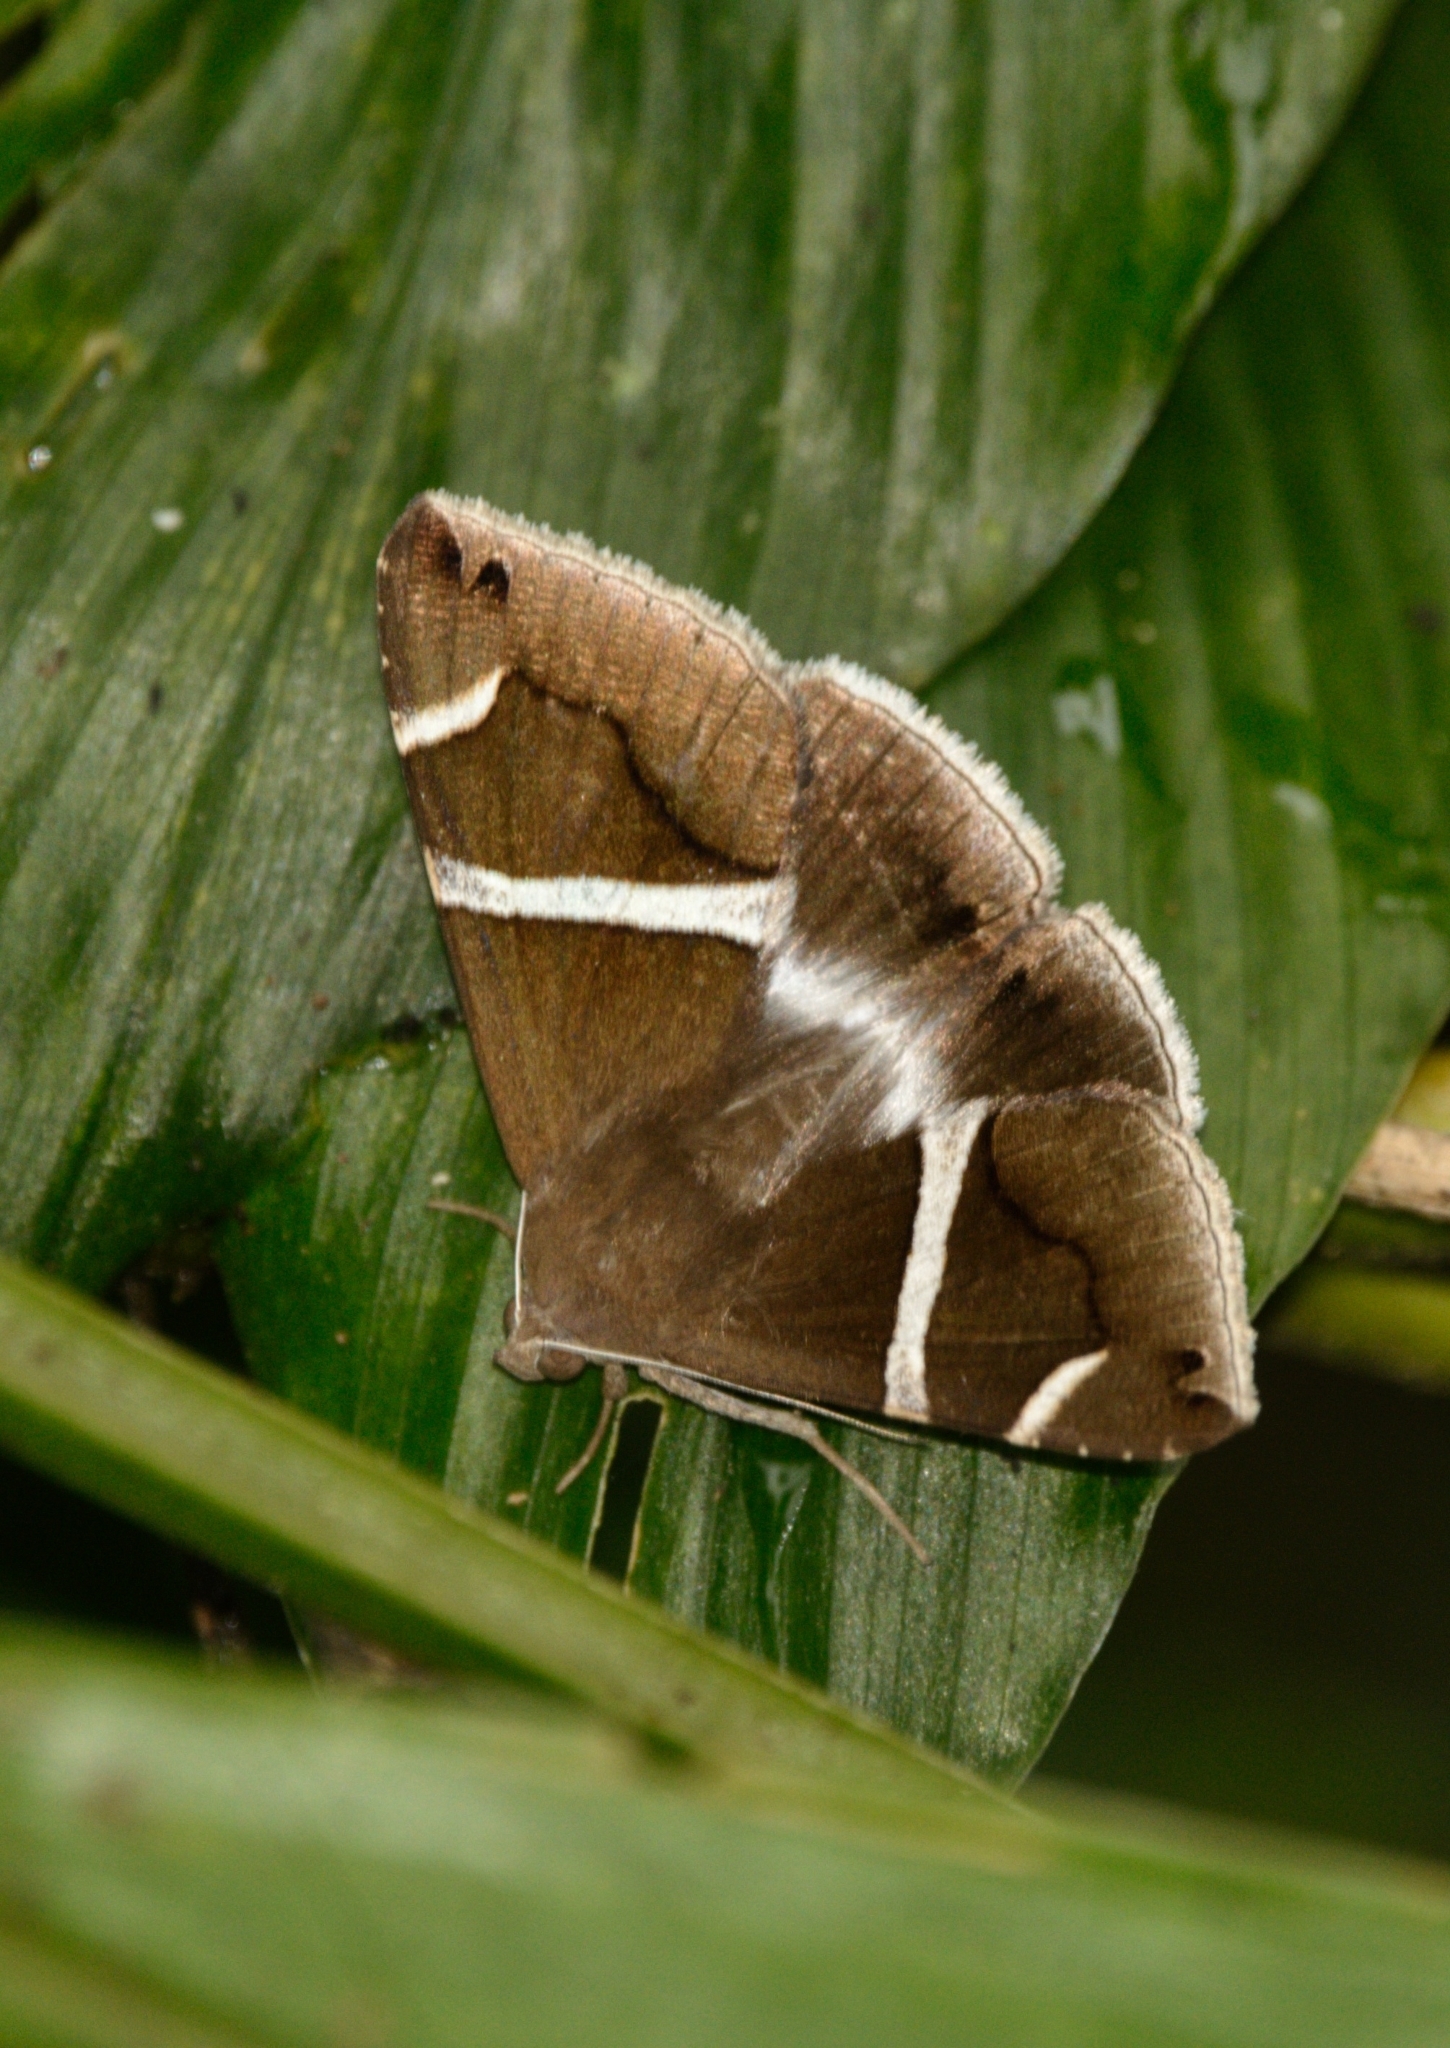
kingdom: Animalia
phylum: Arthropoda
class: Insecta
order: Lepidoptera
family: Erebidae
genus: Bastilla
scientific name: Bastilla arctotaenia
